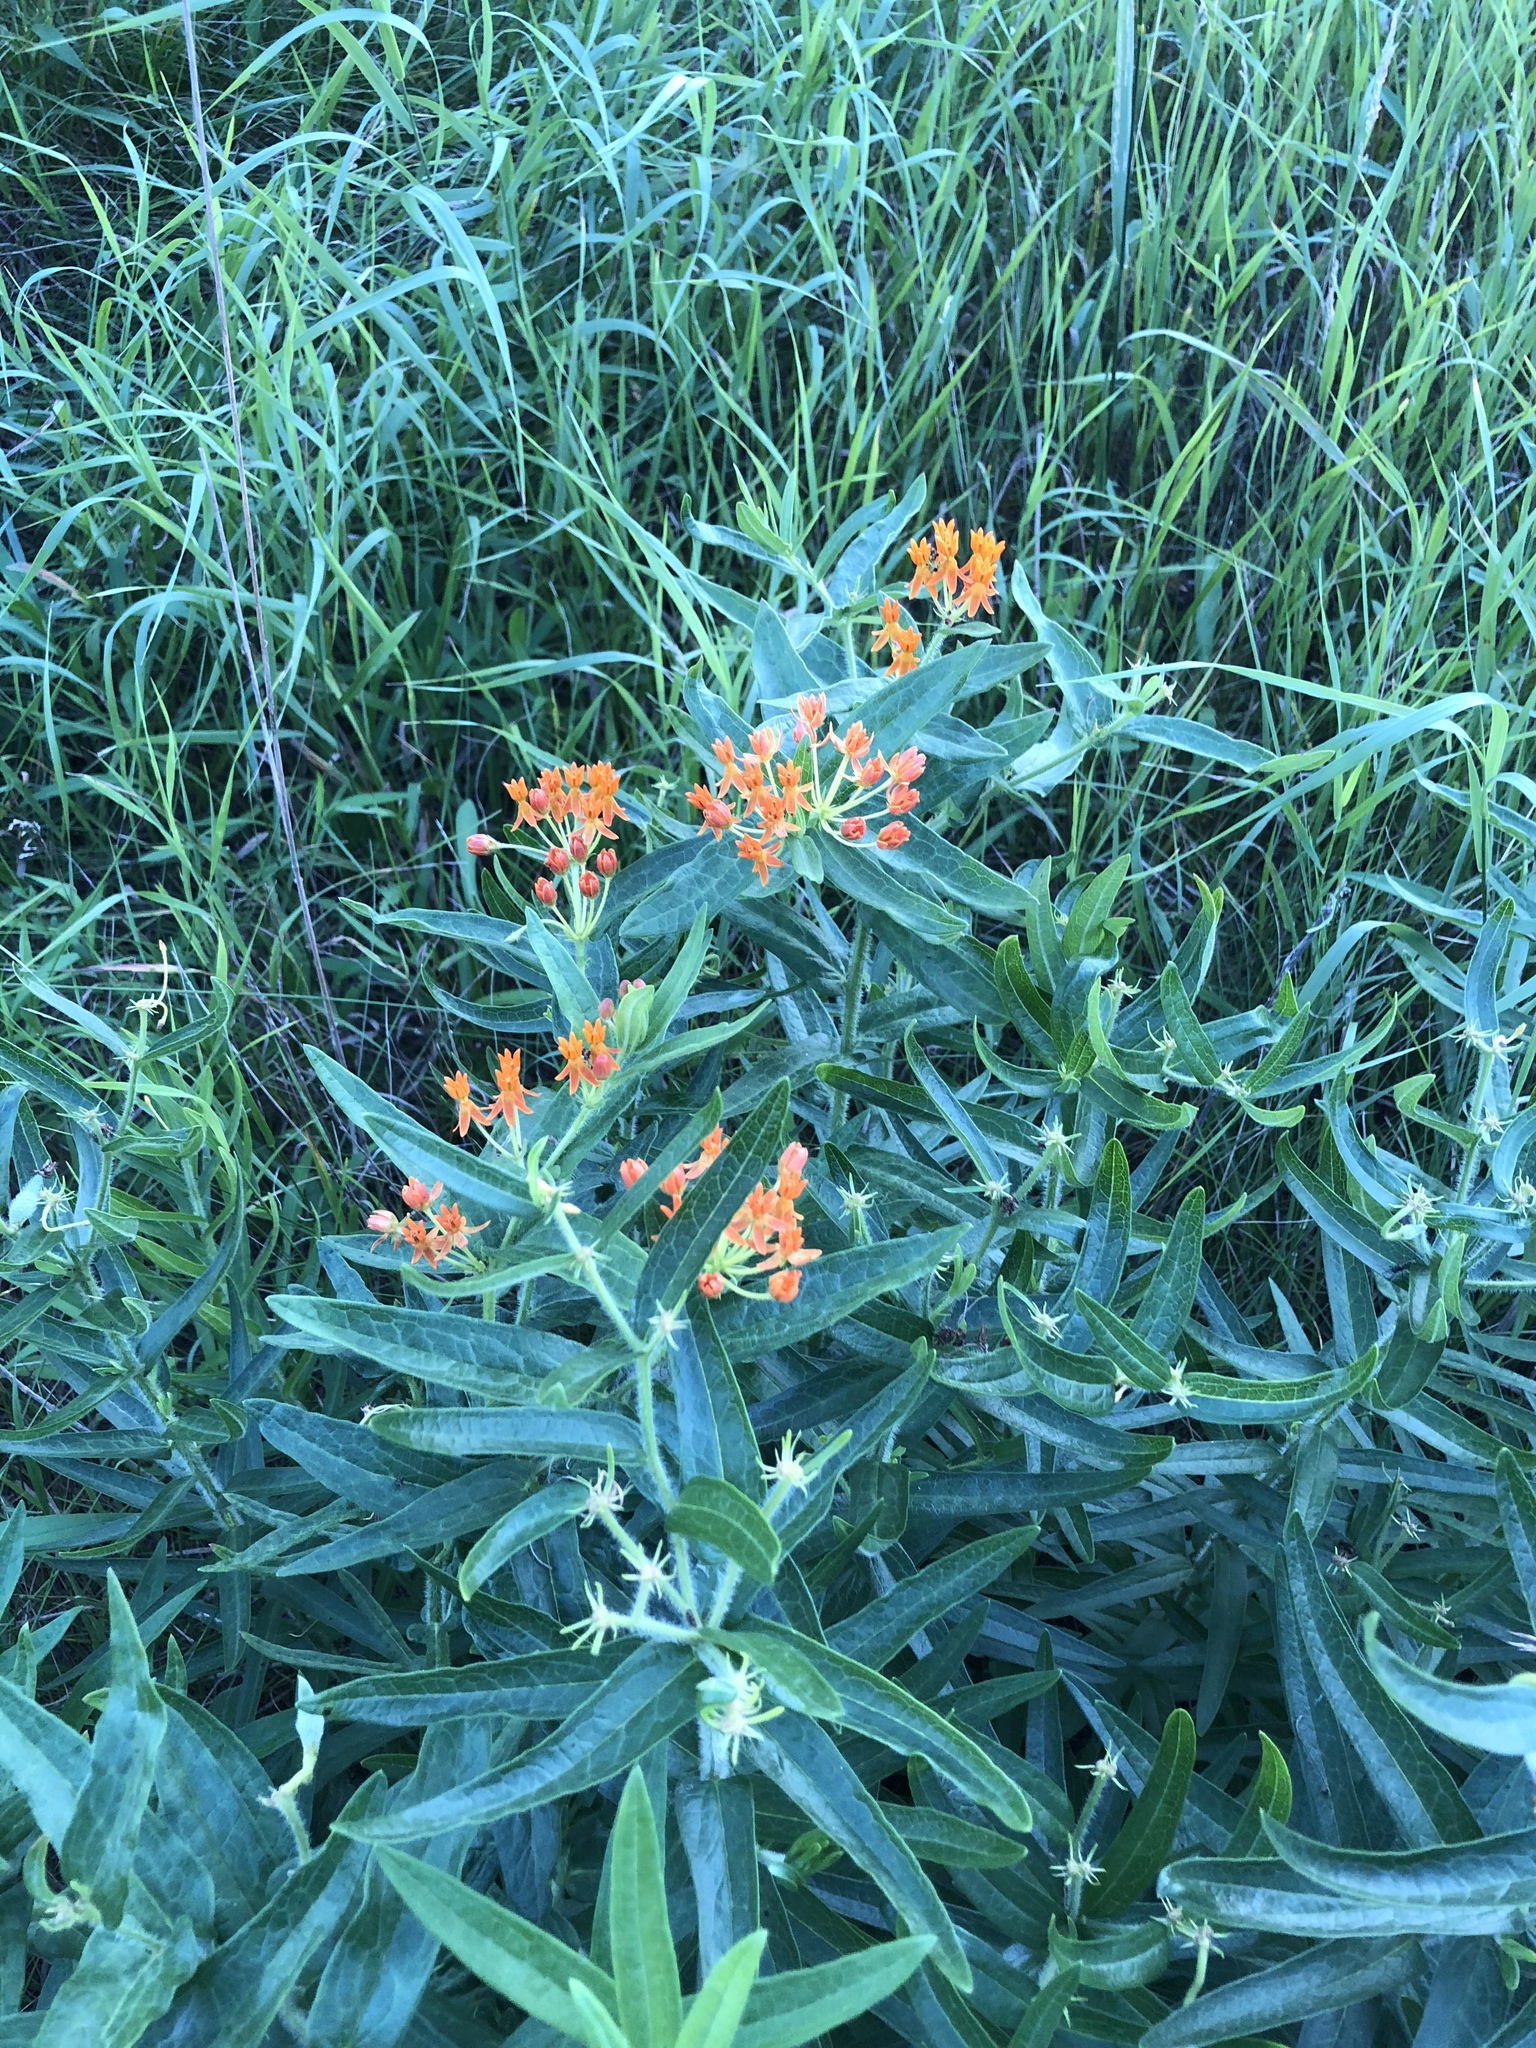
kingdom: Plantae
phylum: Tracheophyta
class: Magnoliopsida
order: Gentianales
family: Apocynaceae
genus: Asclepias
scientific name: Asclepias tuberosa
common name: Butterfly milkweed
